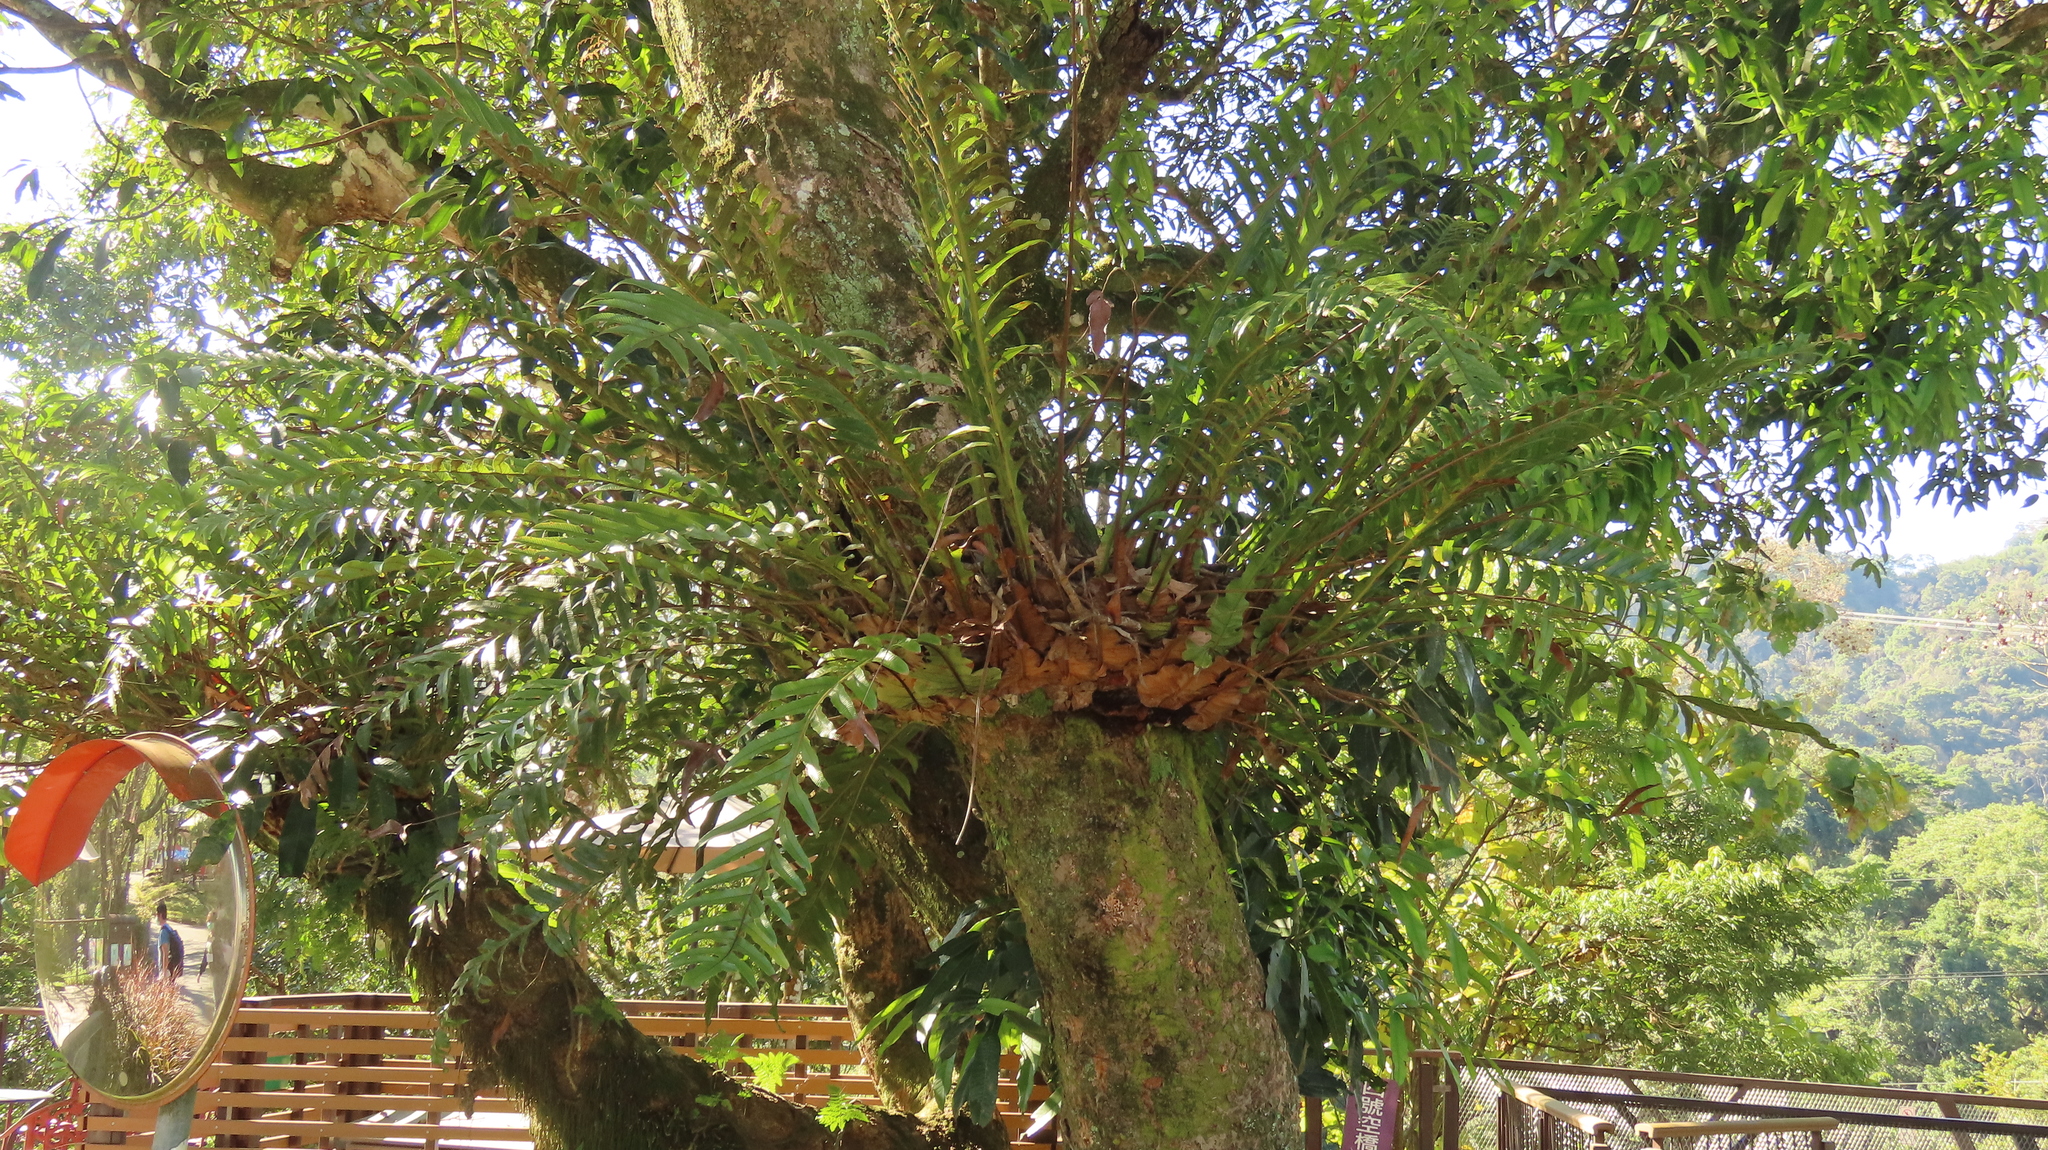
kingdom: Plantae
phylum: Tracheophyta
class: Polypodiopsida
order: Polypodiales
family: Polypodiaceae
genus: Drynaria
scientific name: Drynaria coronans
